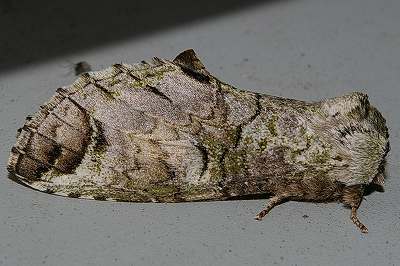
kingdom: Animalia
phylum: Arthropoda
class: Insecta
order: Lepidoptera
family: Notodontidae
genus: Ellida
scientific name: Ellida arcuata
